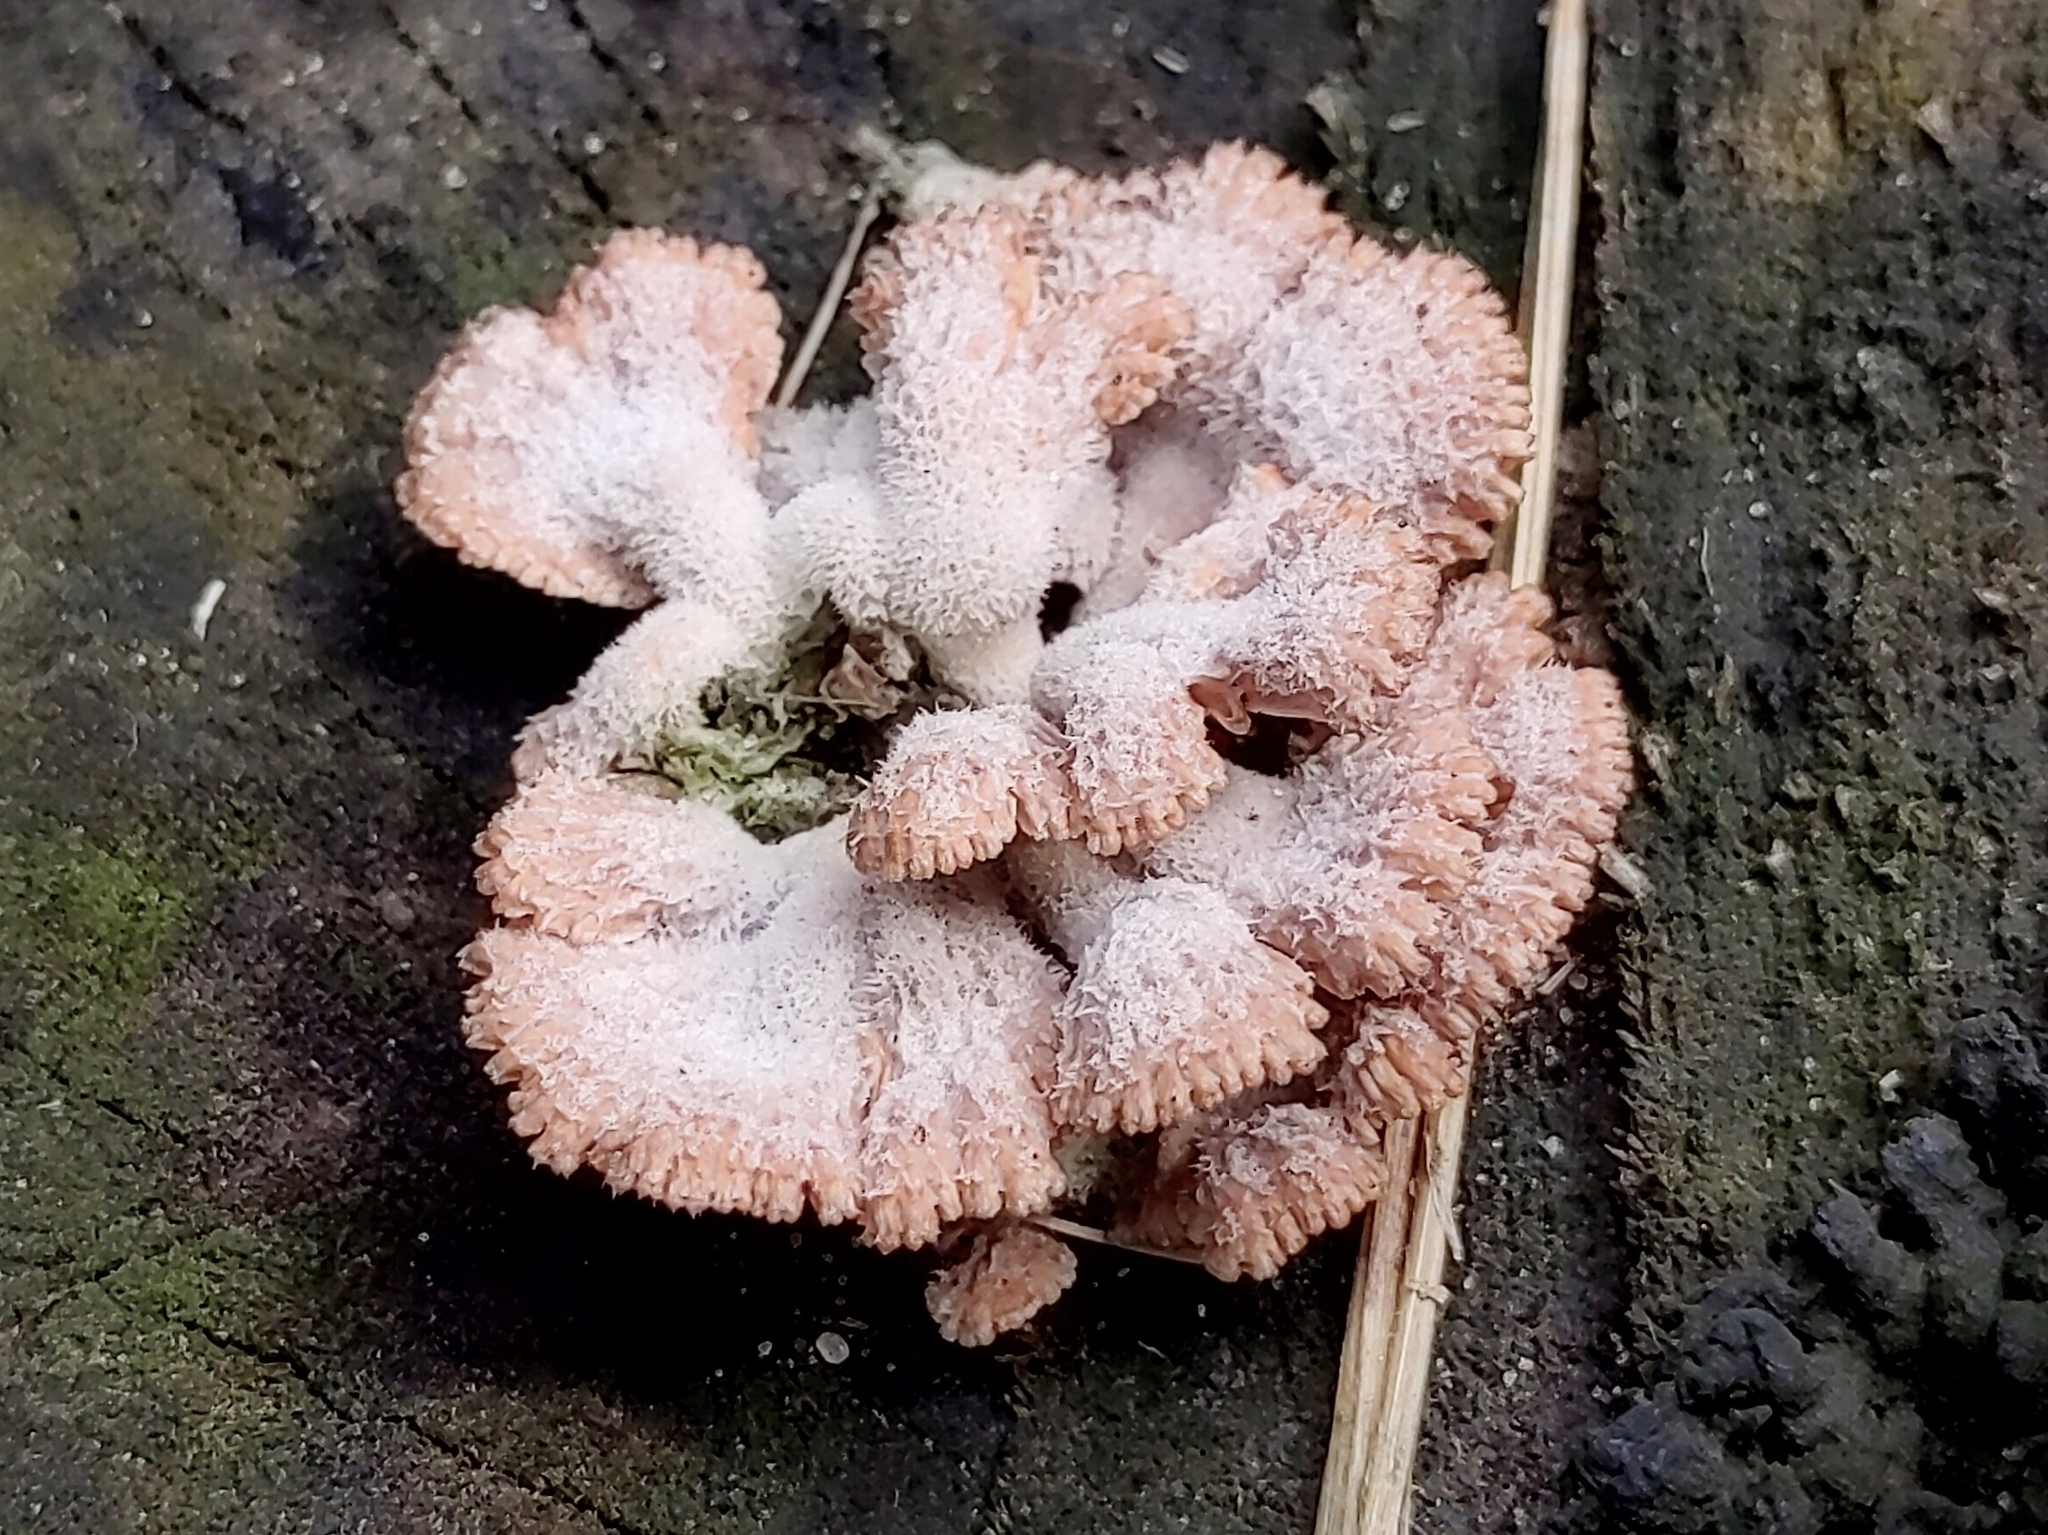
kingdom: Fungi
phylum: Basidiomycota
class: Agaricomycetes
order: Agaricales
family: Schizophyllaceae
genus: Schizophyllum
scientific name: Schizophyllum commune
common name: Common porecrust
